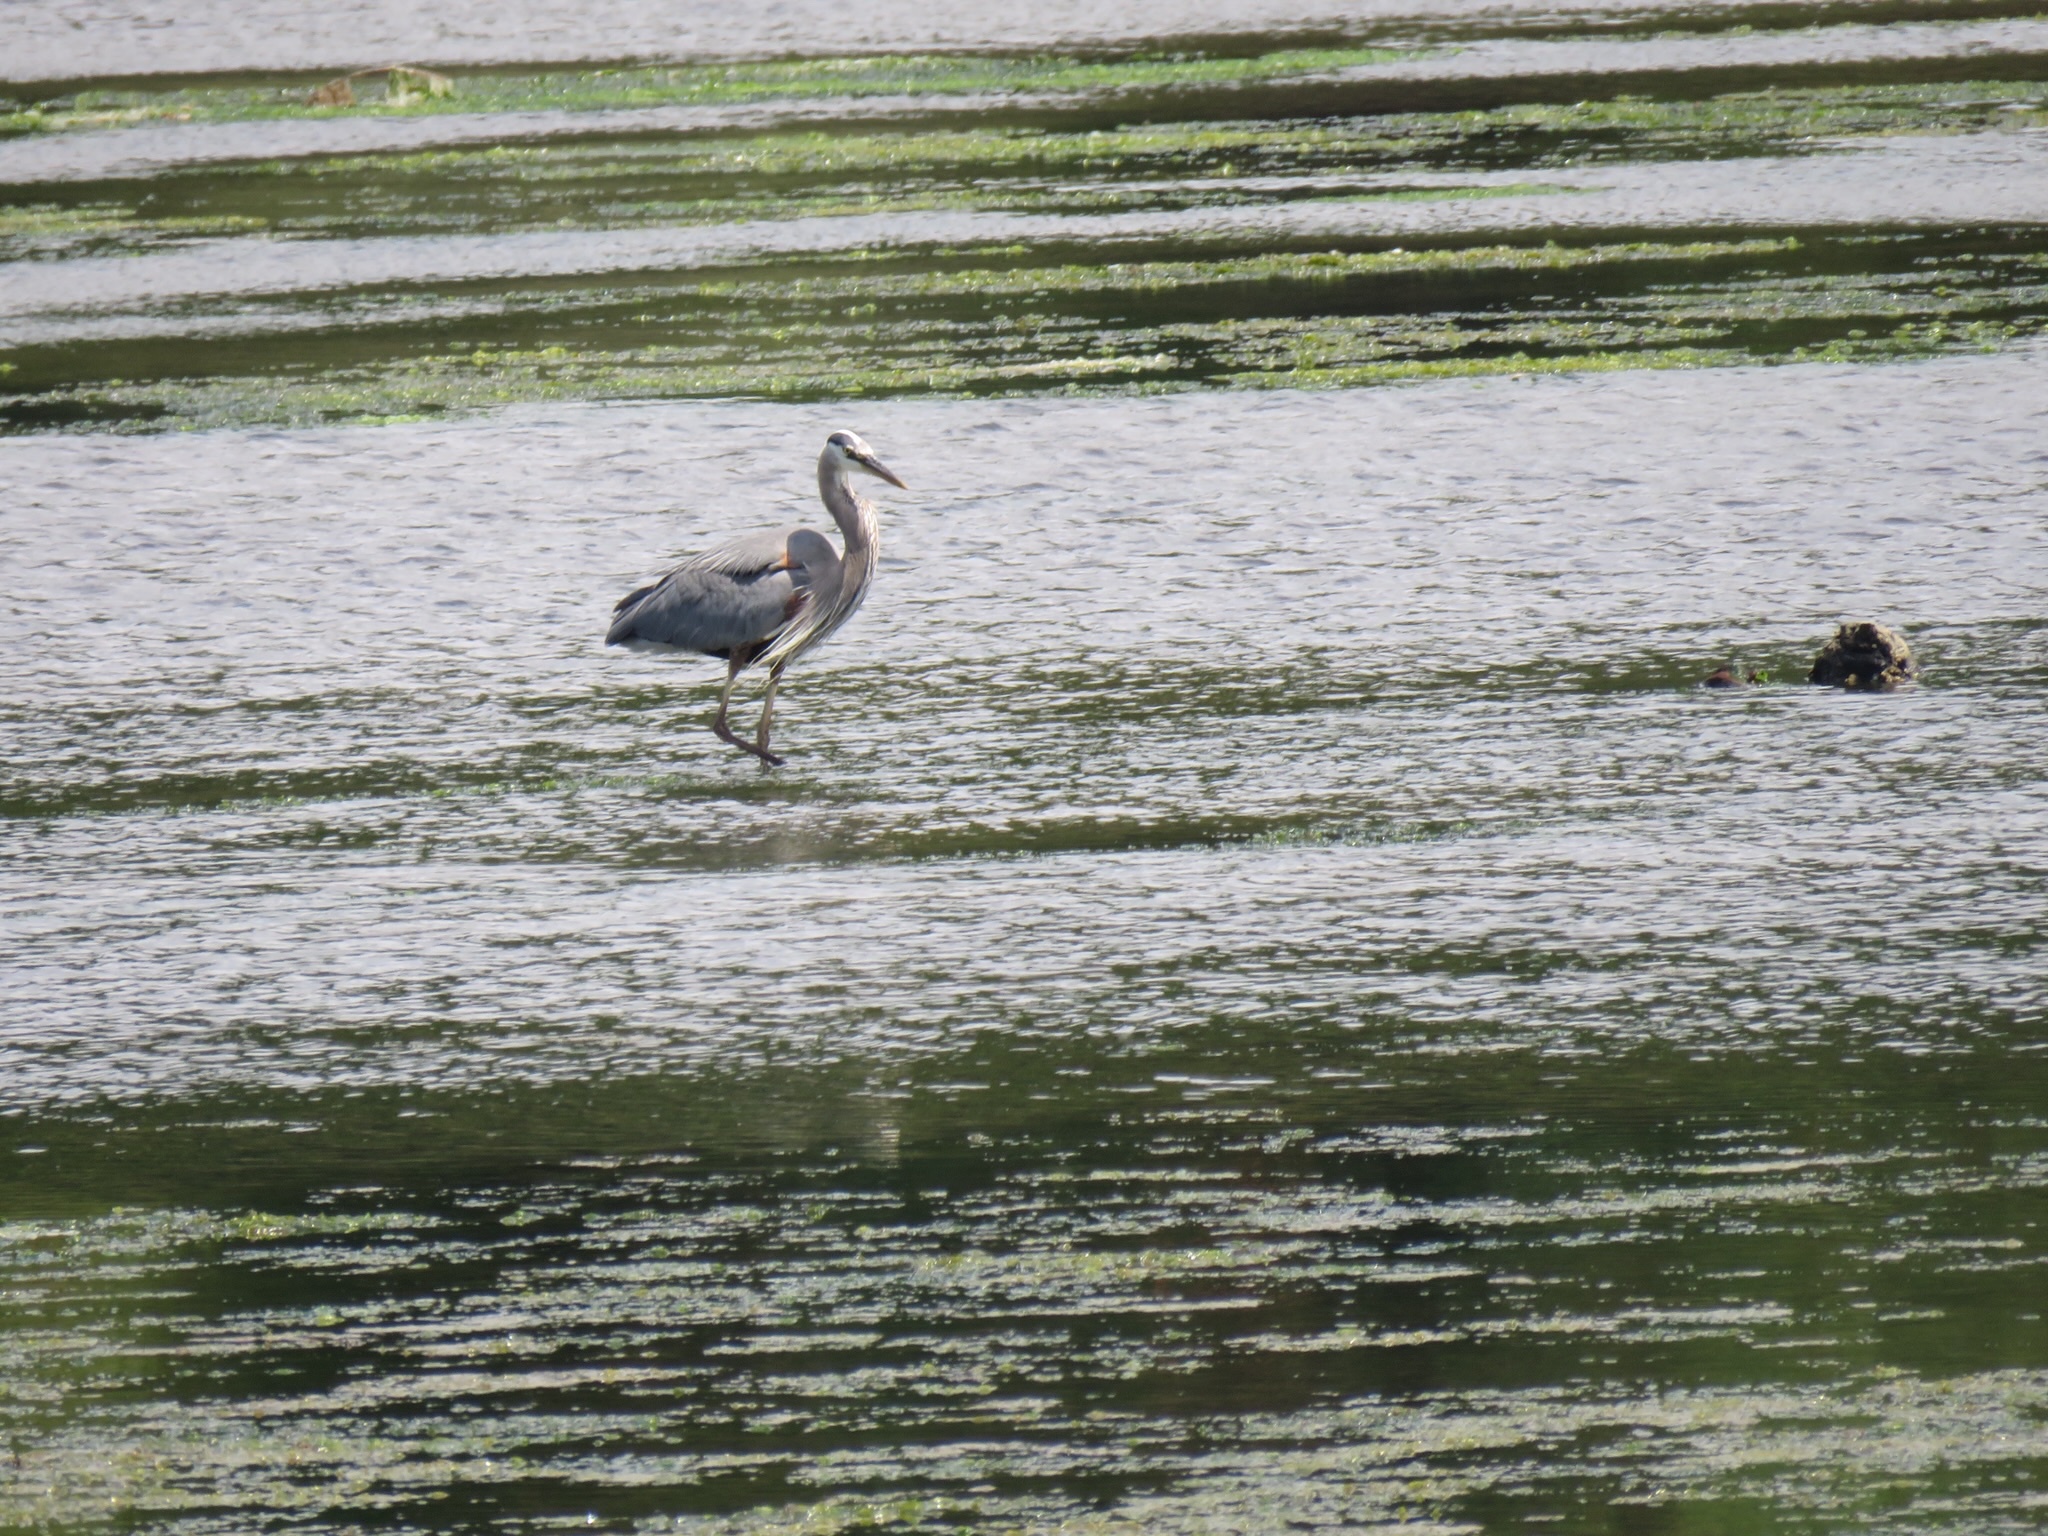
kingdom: Animalia
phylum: Chordata
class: Aves
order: Pelecaniformes
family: Ardeidae
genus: Ardea
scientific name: Ardea herodias
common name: Great blue heron
